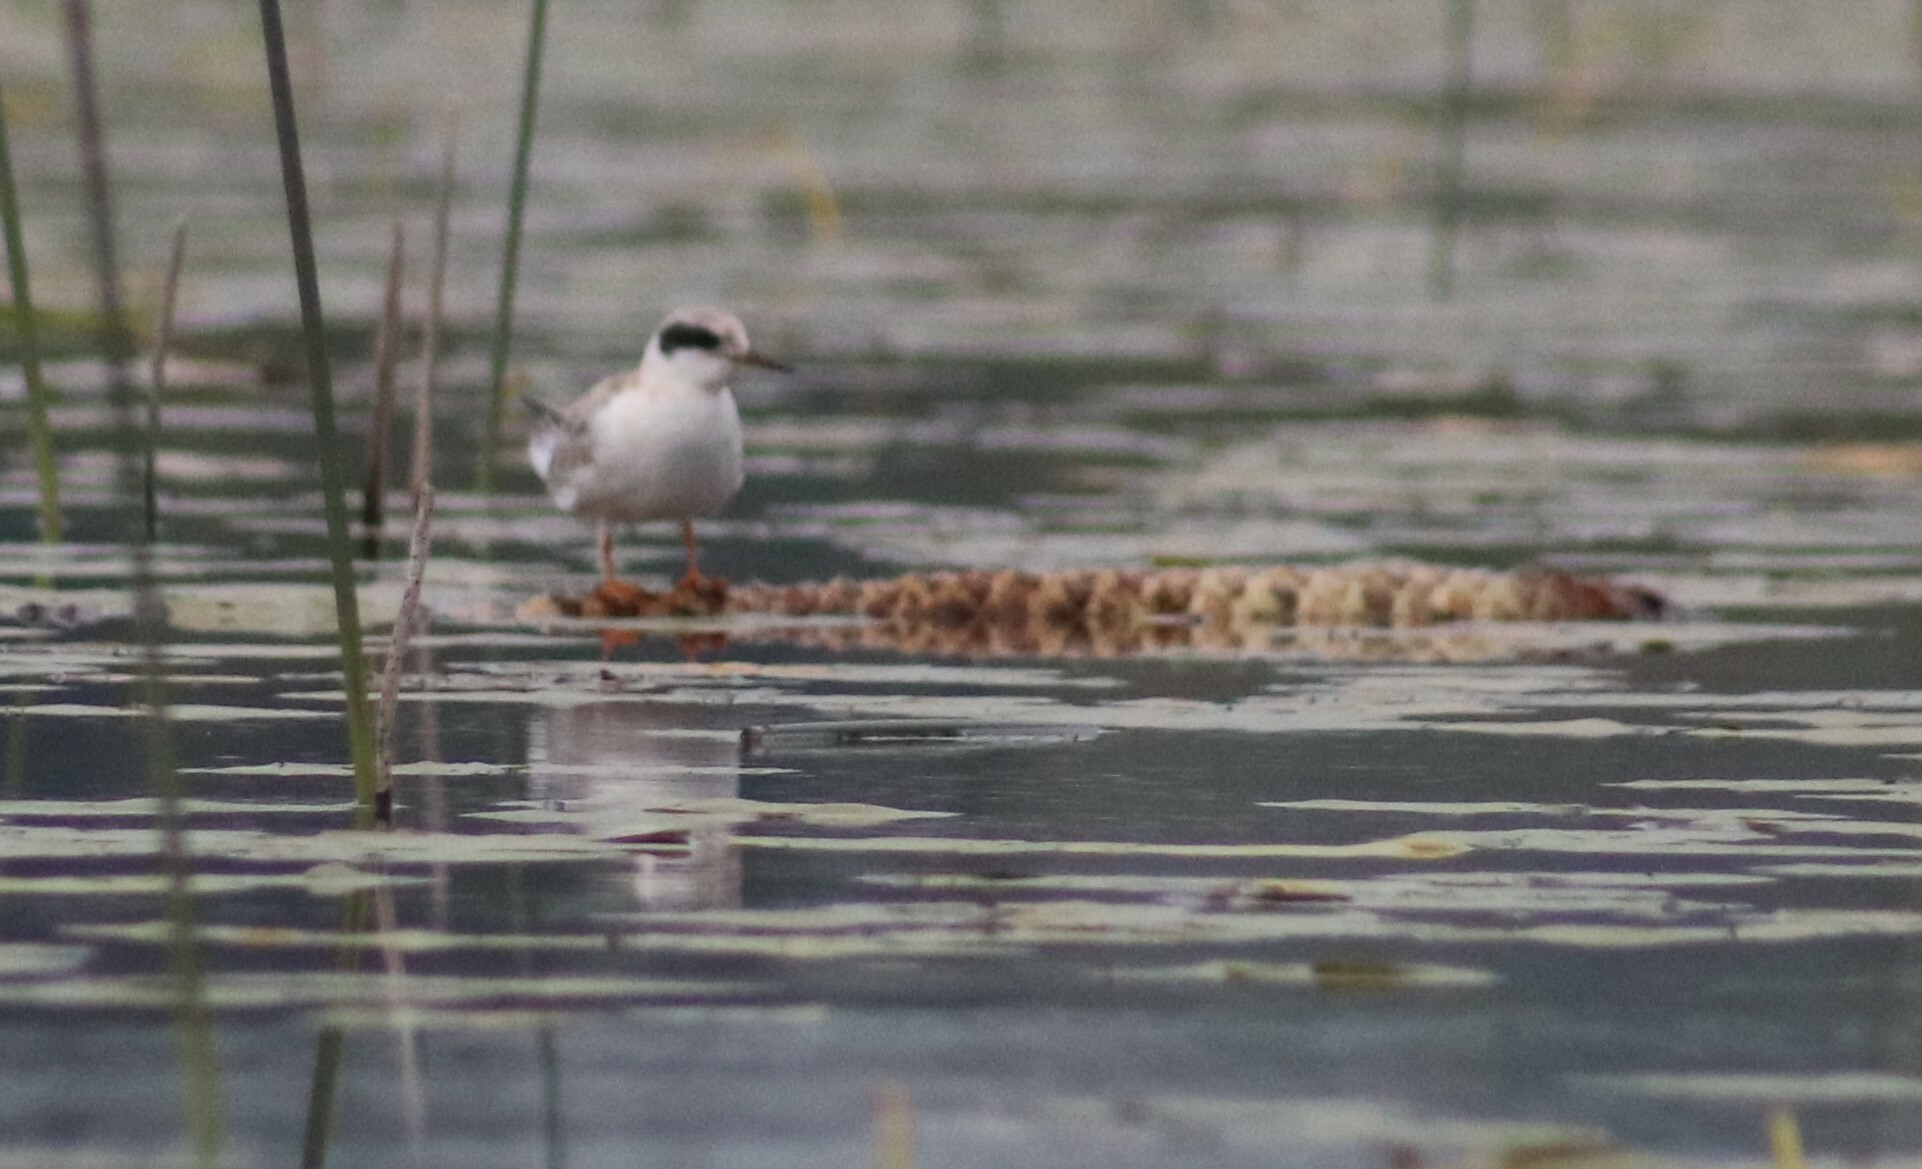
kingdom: Animalia
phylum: Chordata
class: Aves
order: Charadriiformes
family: Laridae
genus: Sterna
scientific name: Sterna forsteri
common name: Forster's tern
